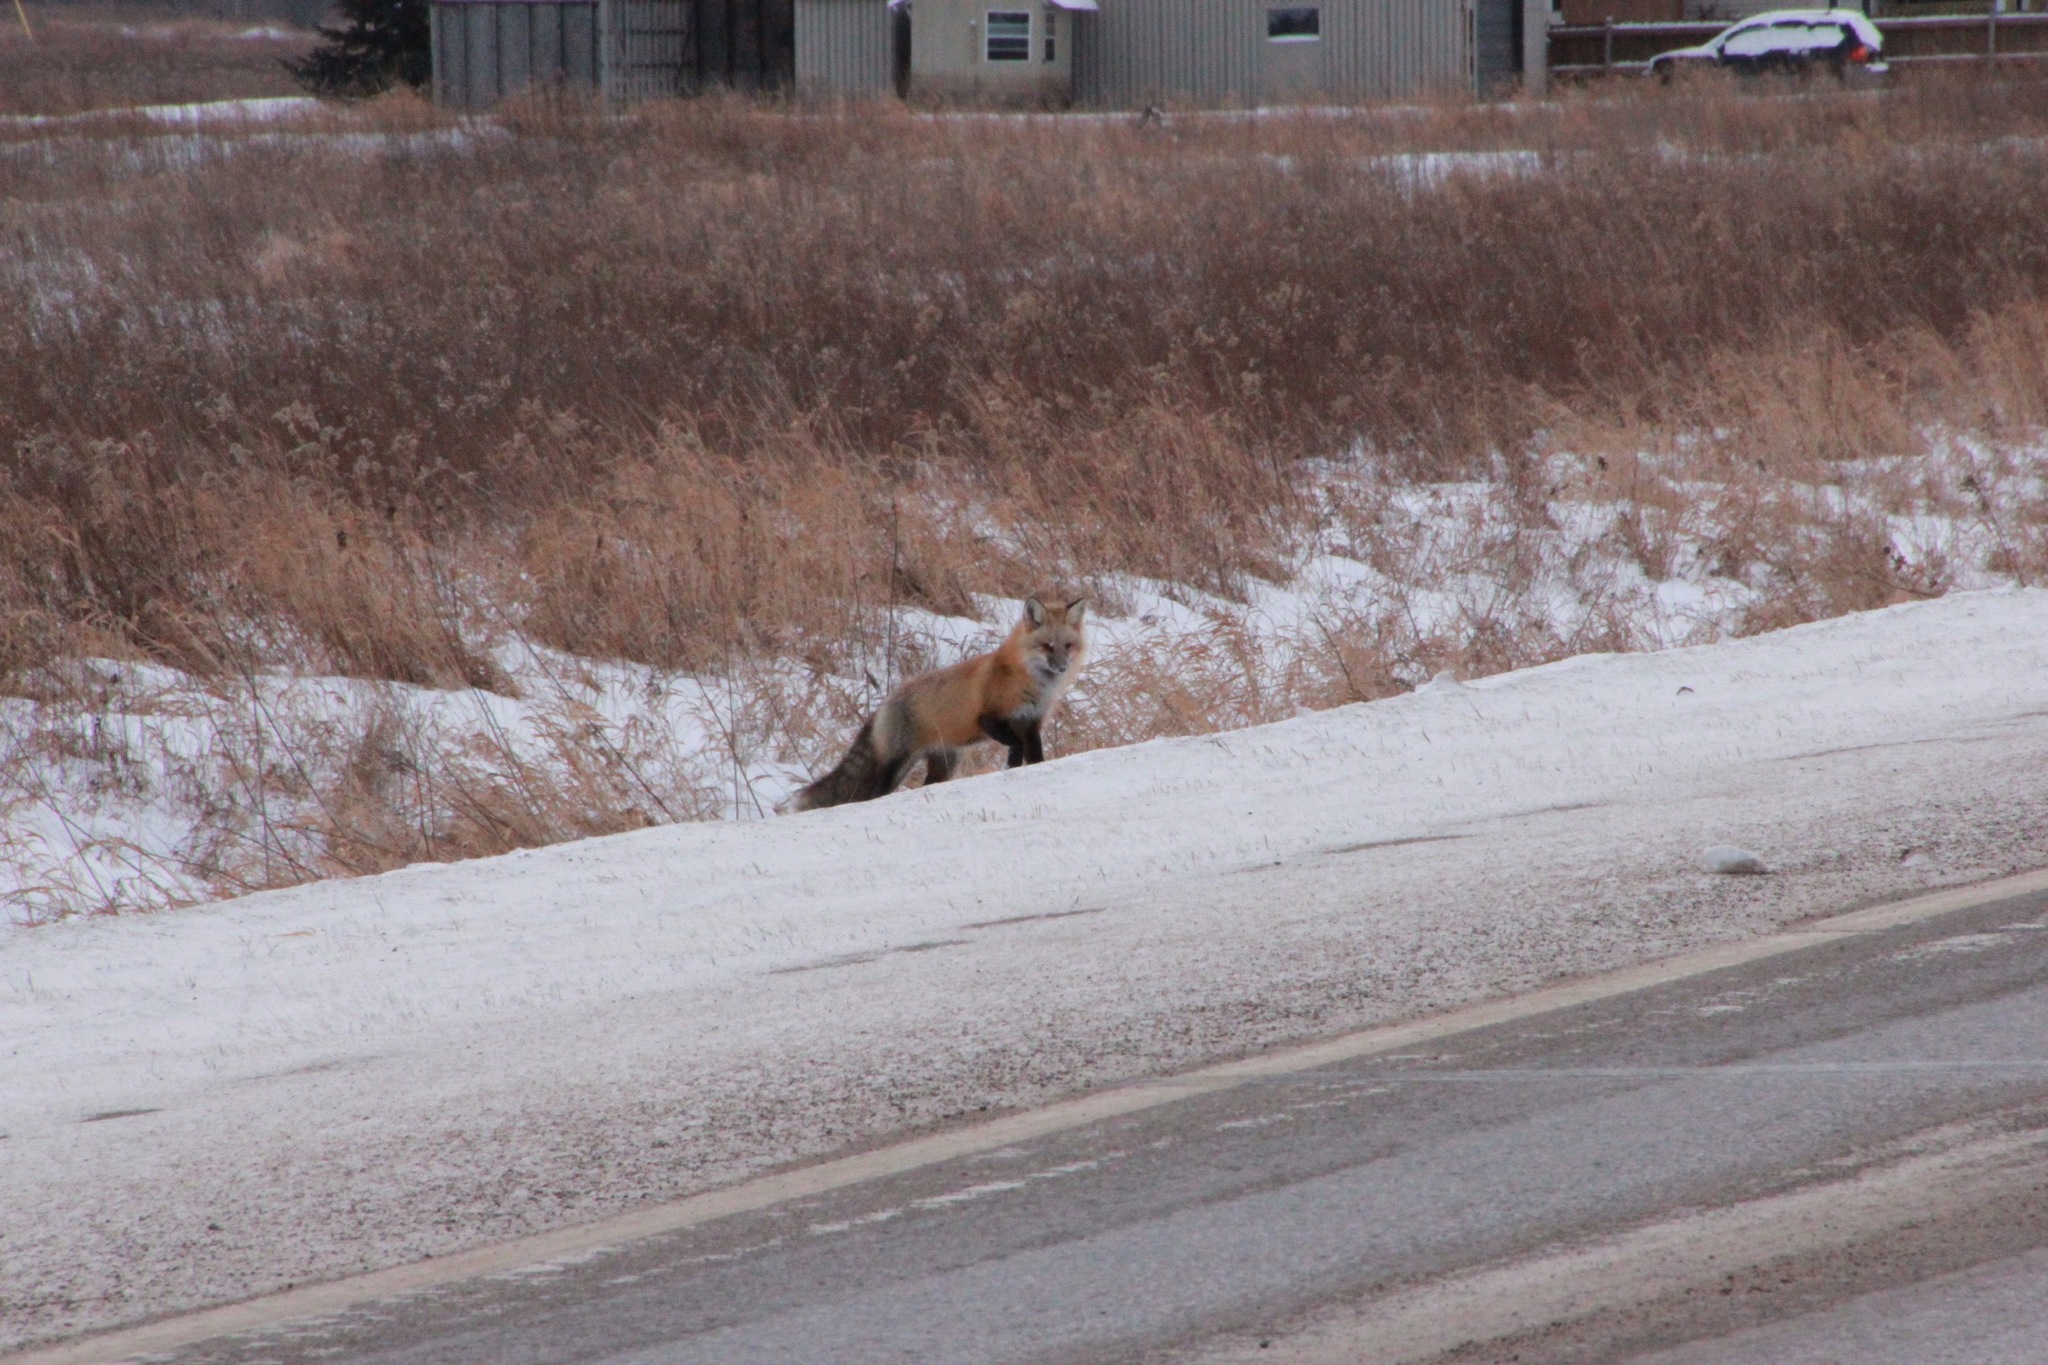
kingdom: Animalia
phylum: Chordata
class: Mammalia
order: Carnivora
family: Canidae
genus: Vulpes
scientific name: Vulpes vulpes
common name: Red fox
